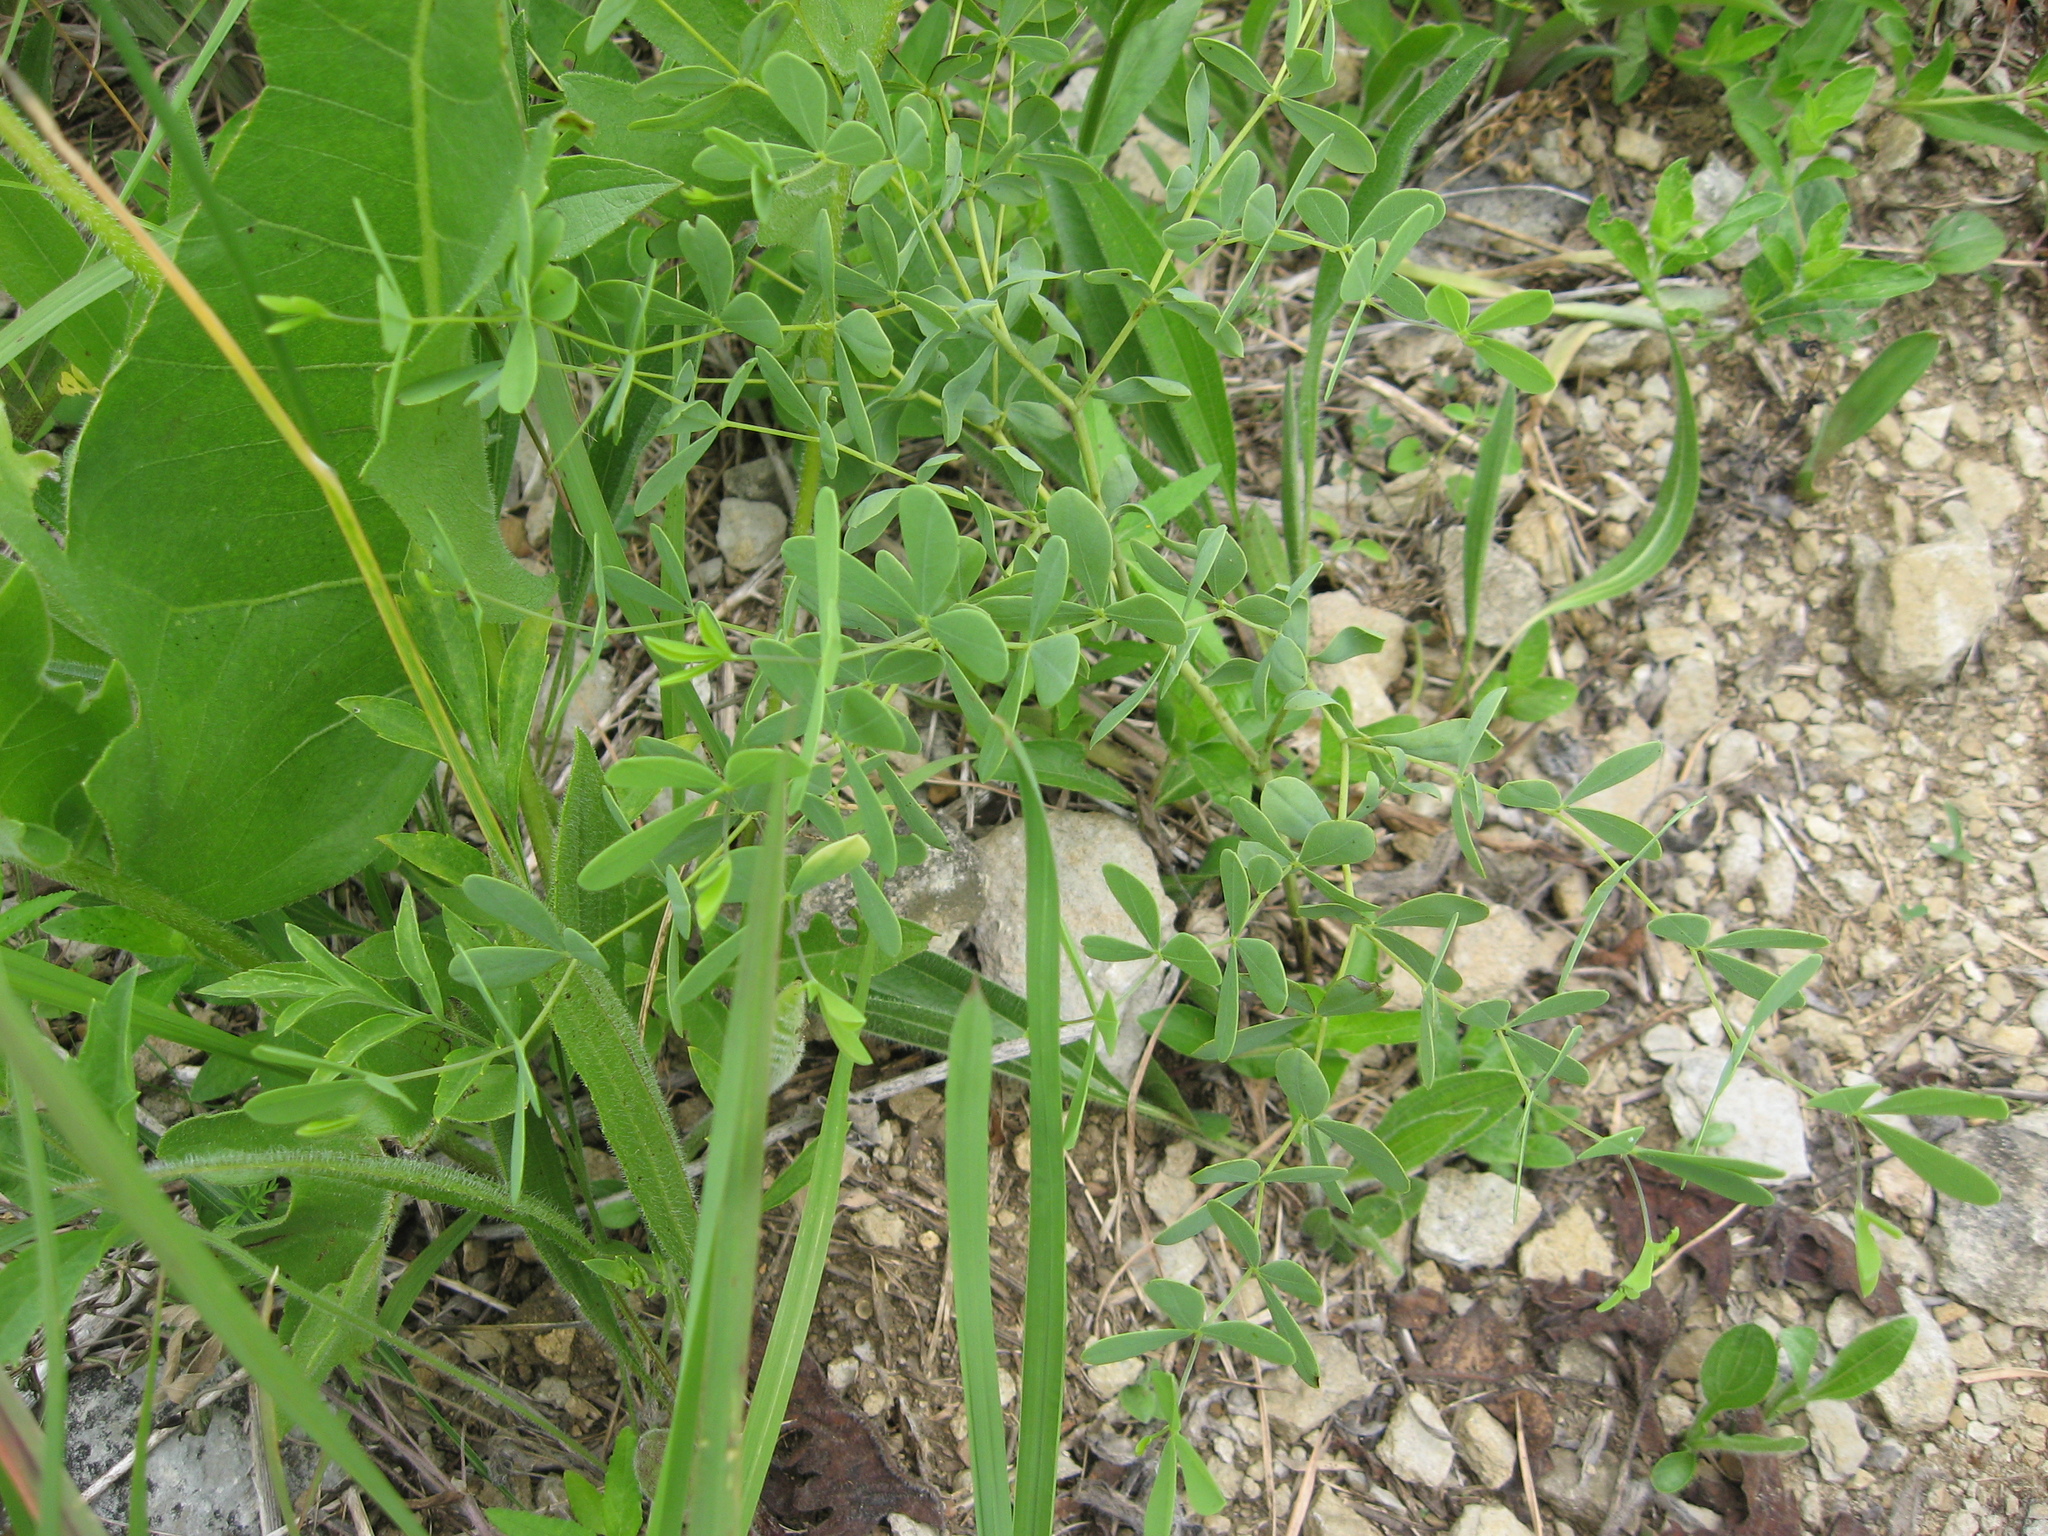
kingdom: Plantae
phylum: Tracheophyta
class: Magnoliopsida
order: Fabales
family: Fabaceae
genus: Baptisia
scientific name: Baptisia aberrans
